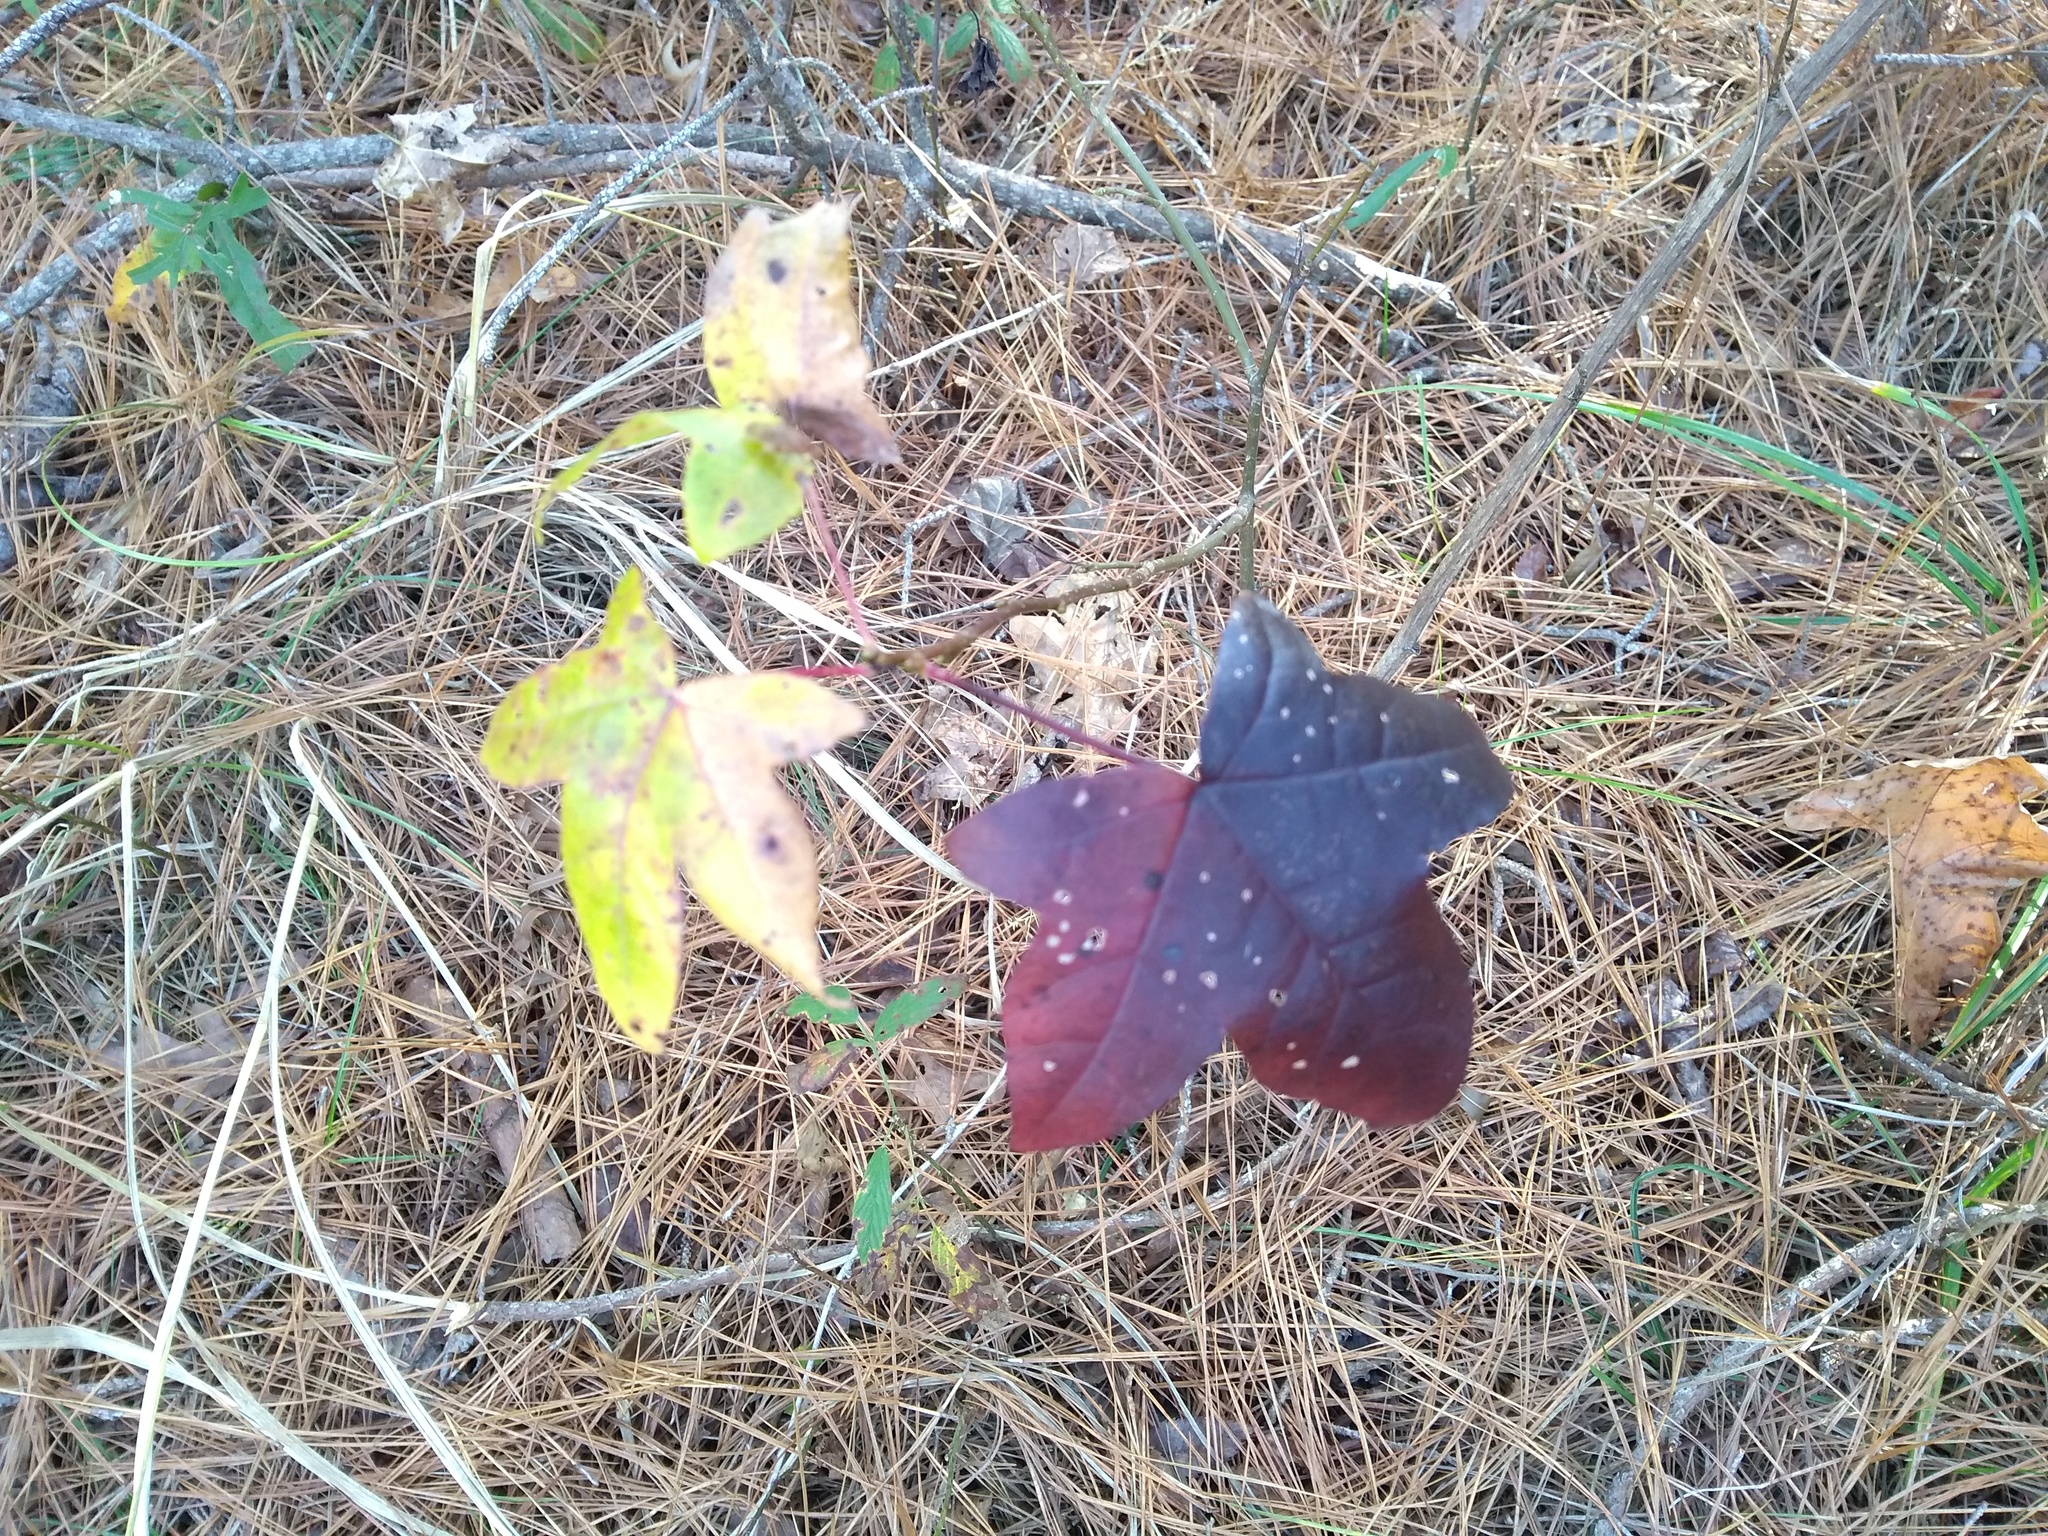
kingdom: Plantae
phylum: Tracheophyta
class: Magnoliopsida
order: Saxifragales
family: Altingiaceae
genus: Liquidambar
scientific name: Liquidambar styraciflua
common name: Sweet gum
